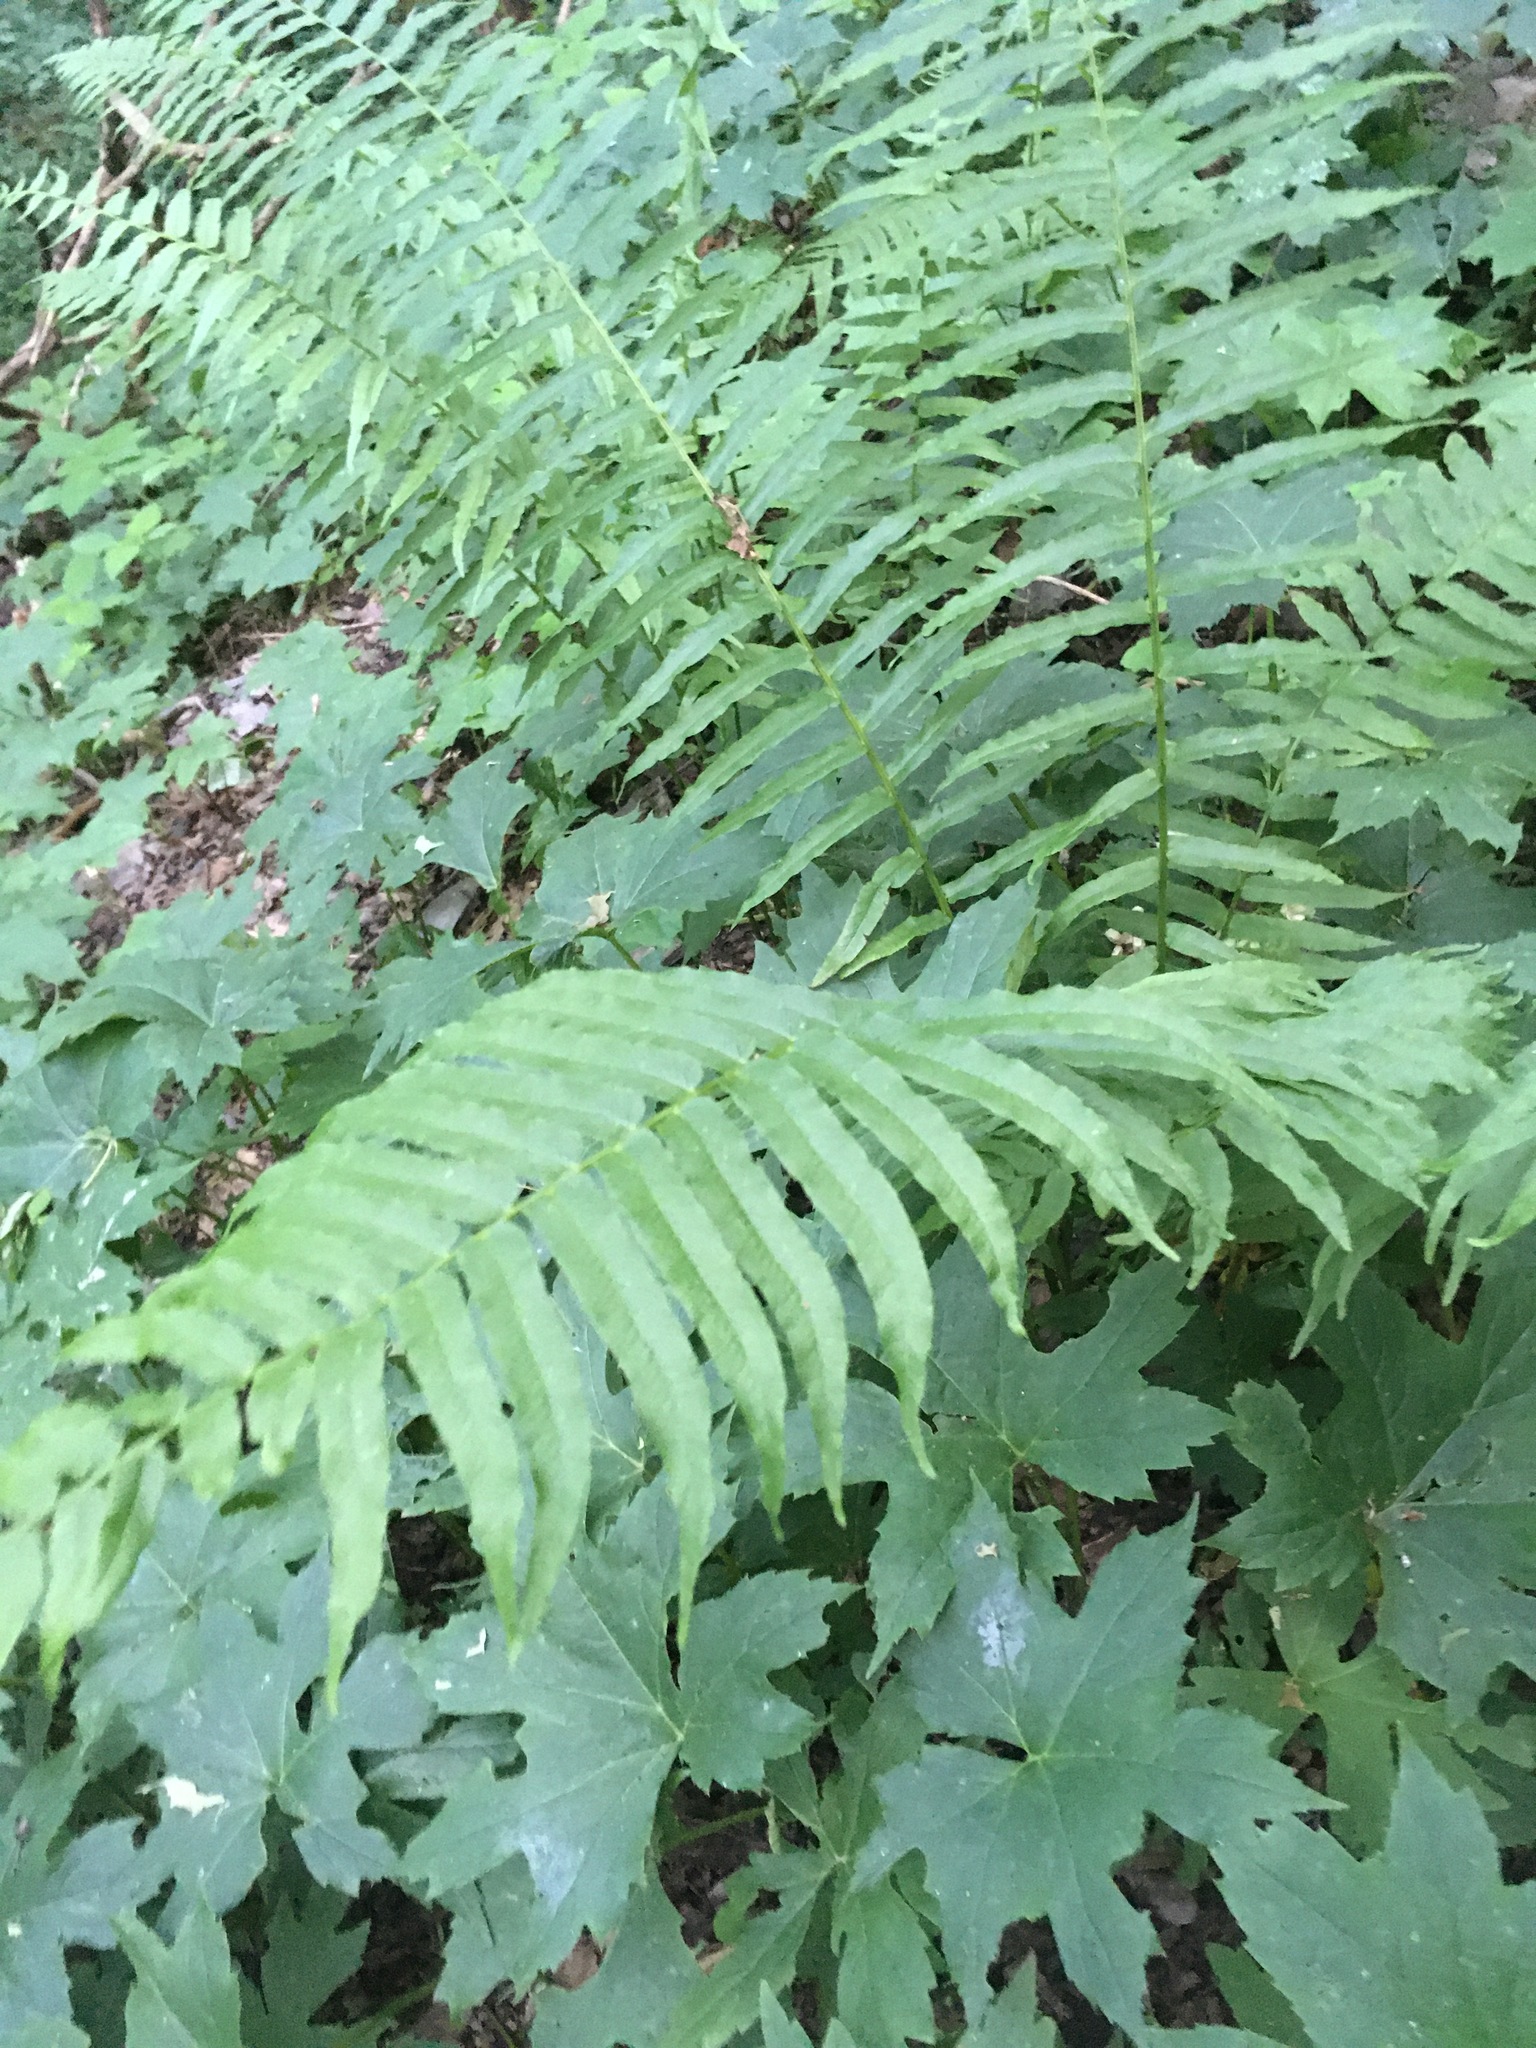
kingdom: Plantae
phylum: Tracheophyta
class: Polypodiopsida
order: Polypodiales
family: Diplaziopsidaceae
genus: Homalosorus
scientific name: Homalosorus pycnocarpos
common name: Glade fern
